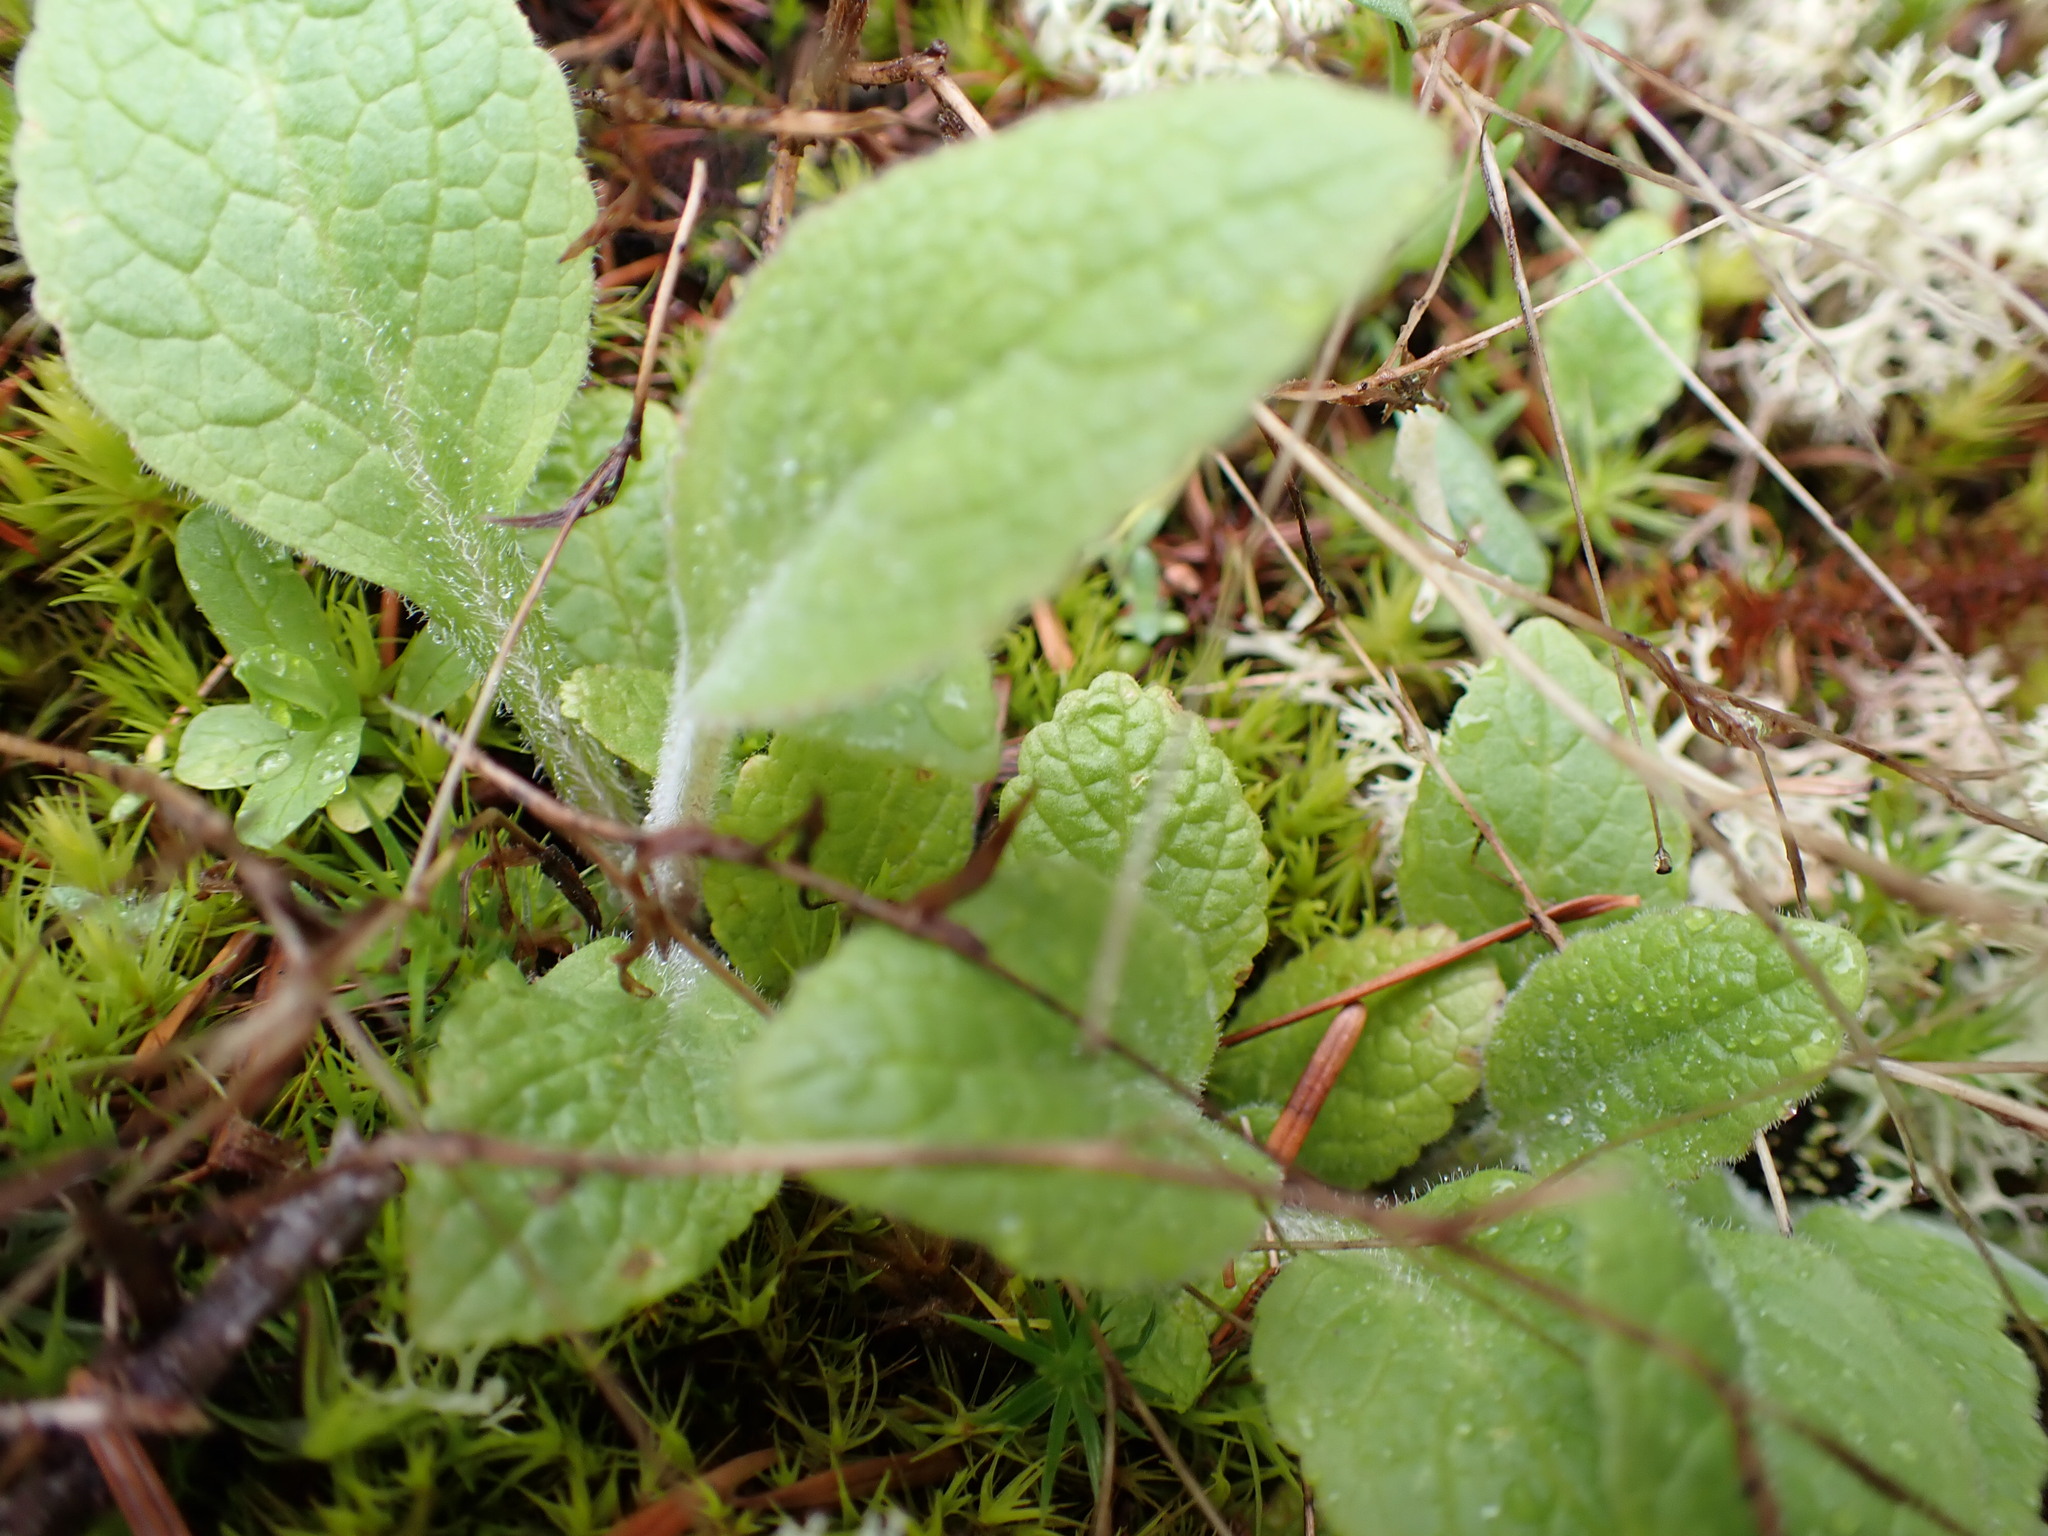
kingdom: Plantae
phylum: Tracheophyta
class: Magnoliopsida
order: Lamiales
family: Plantaginaceae
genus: Digitalis
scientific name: Digitalis purpurea
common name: Foxglove
